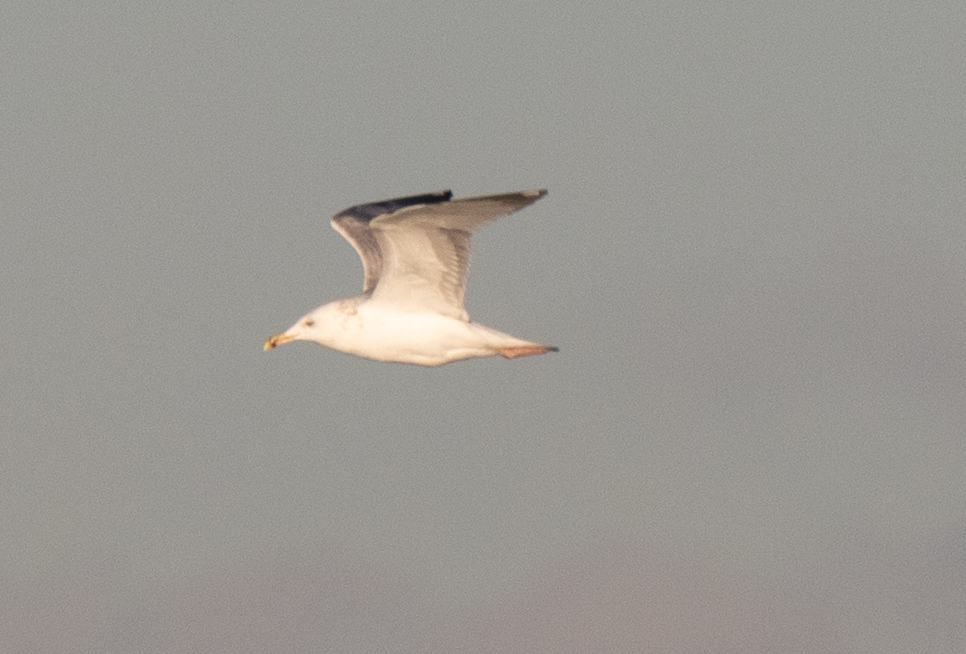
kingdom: Animalia
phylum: Chordata
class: Aves
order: Charadriiformes
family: Laridae
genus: Larus
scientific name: Larus michahellis
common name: Yellow-legged gull
